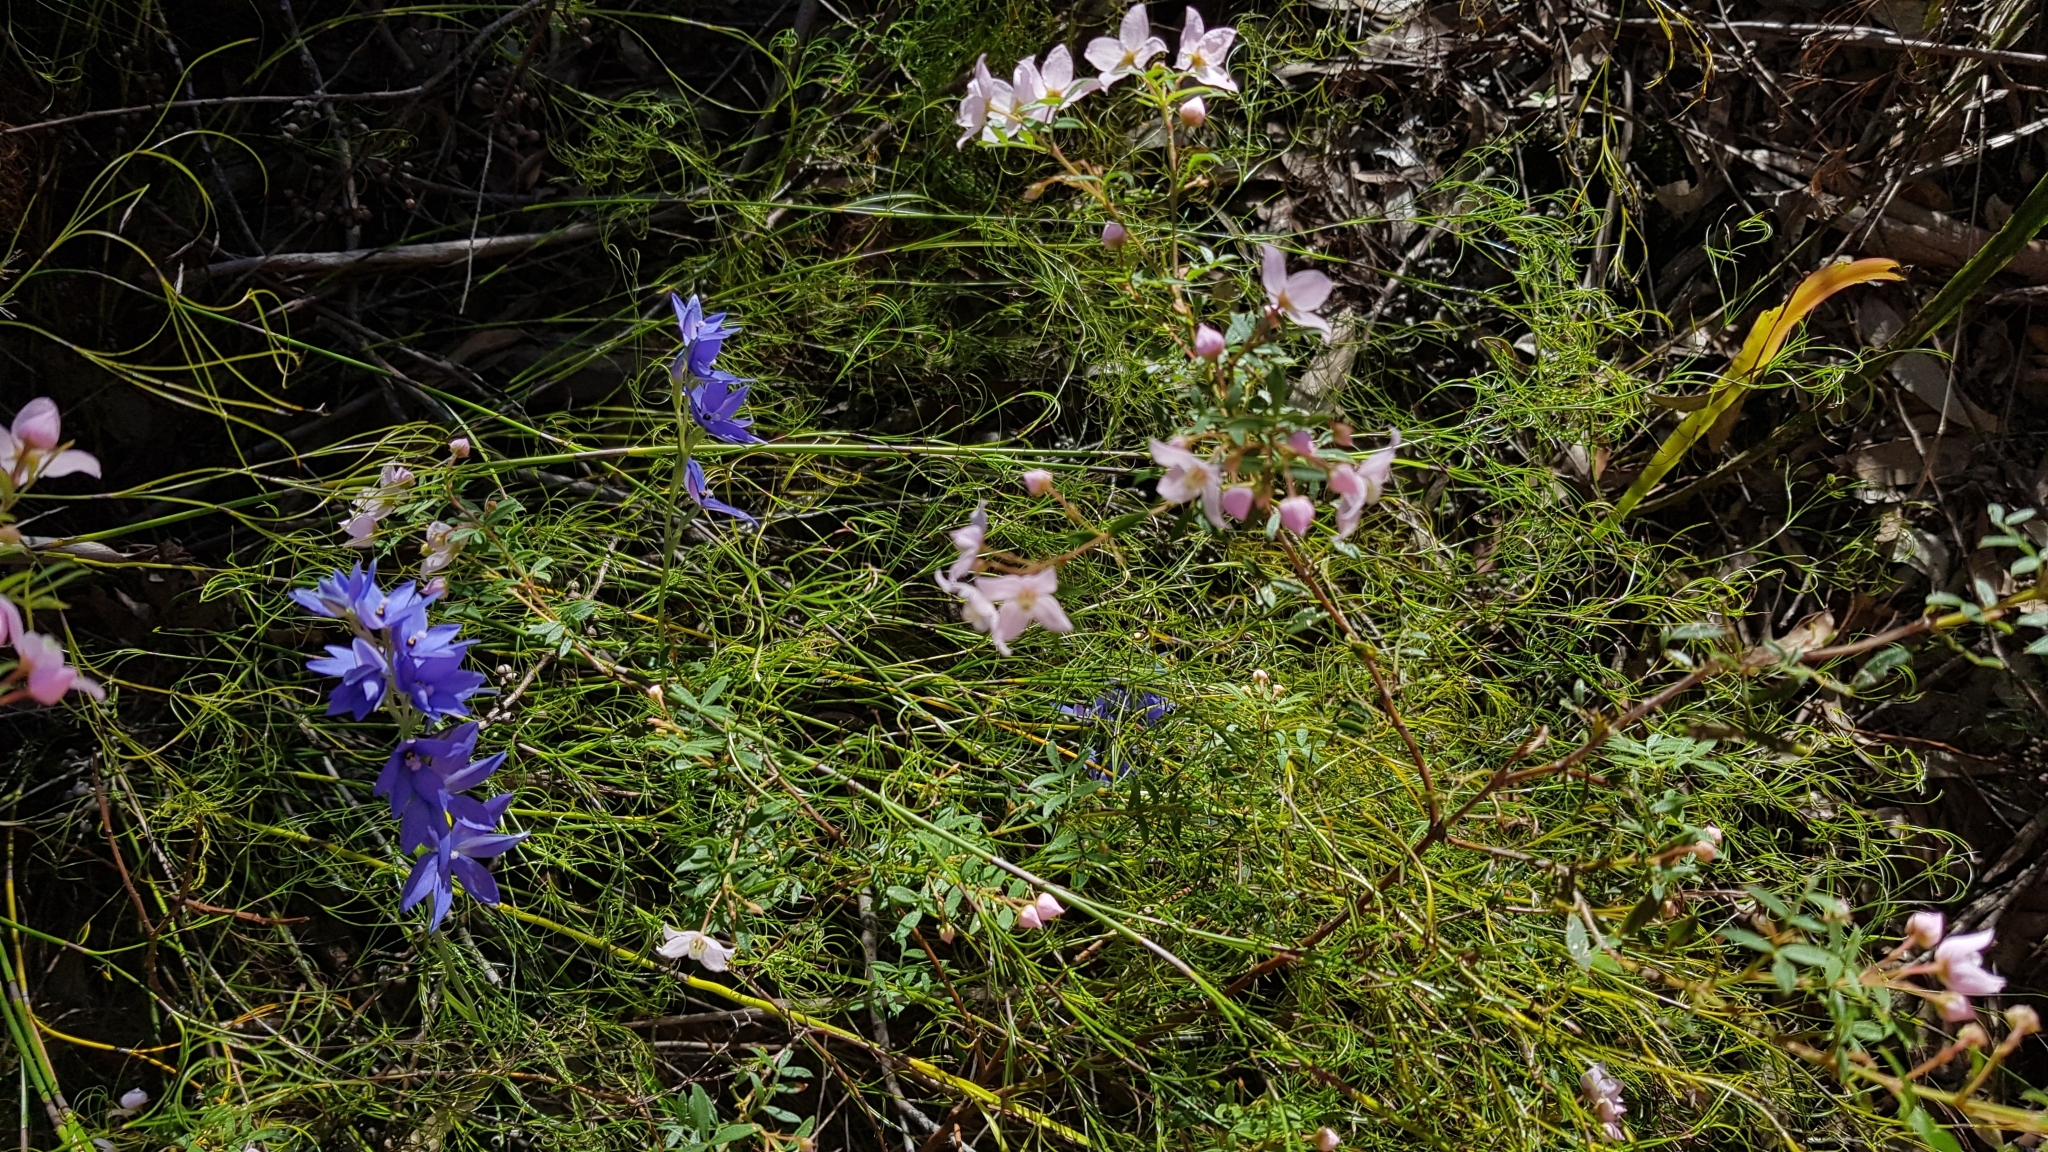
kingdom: Plantae
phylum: Tracheophyta
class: Liliopsida
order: Asparagales
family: Orchidaceae
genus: Thelymitra
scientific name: Thelymitra ixioides
